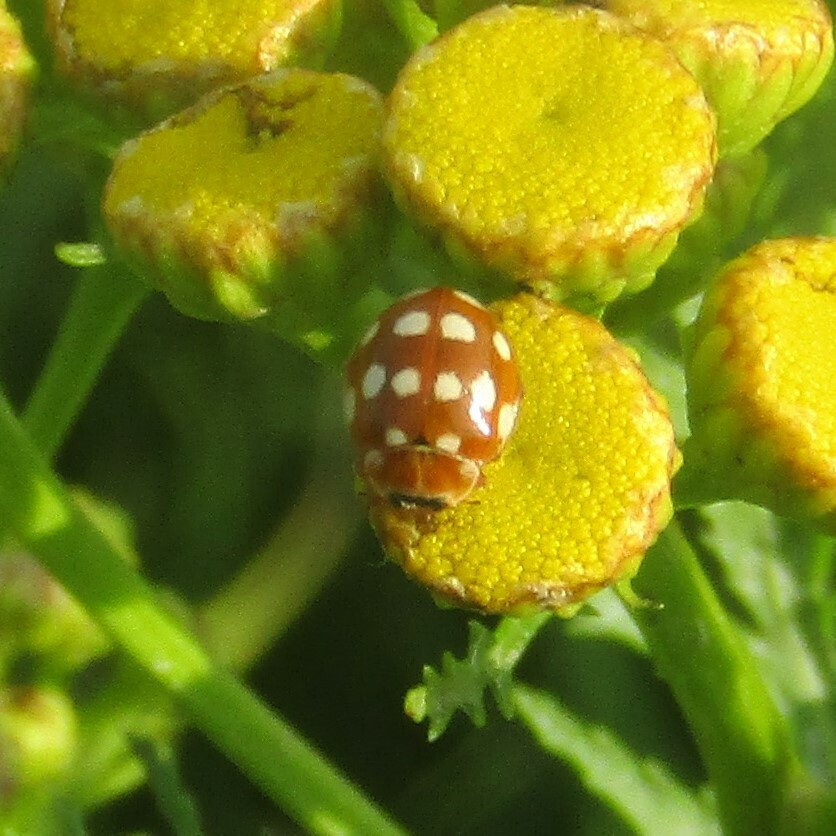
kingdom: Animalia
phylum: Arthropoda
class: Insecta
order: Coleoptera
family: Coccinellidae
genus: Calvia
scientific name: Calvia quatuordecimguttata
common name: Cream-spot ladybird
